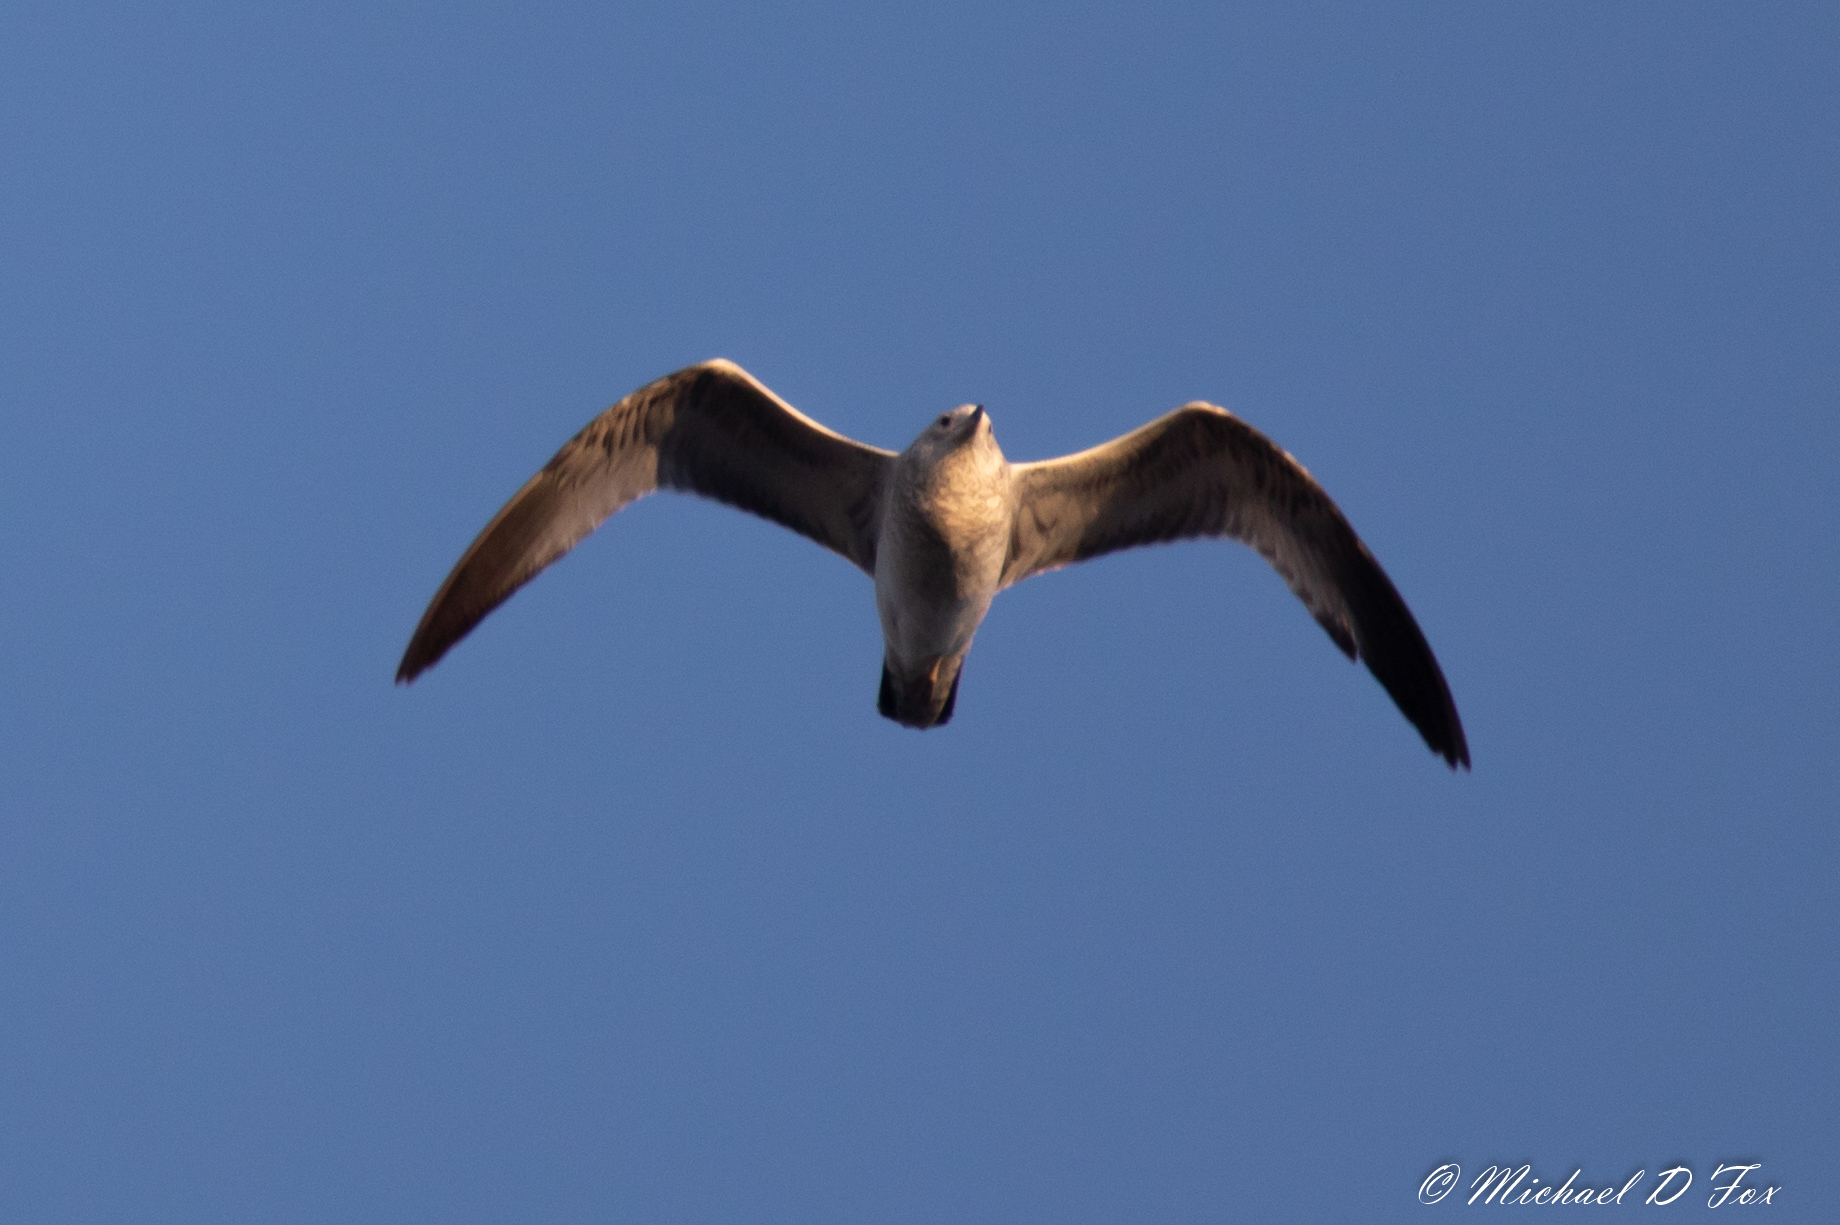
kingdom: Animalia
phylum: Chordata
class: Aves
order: Charadriiformes
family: Laridae
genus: Larus
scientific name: Larus delawarensis
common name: Ring-billed gull
